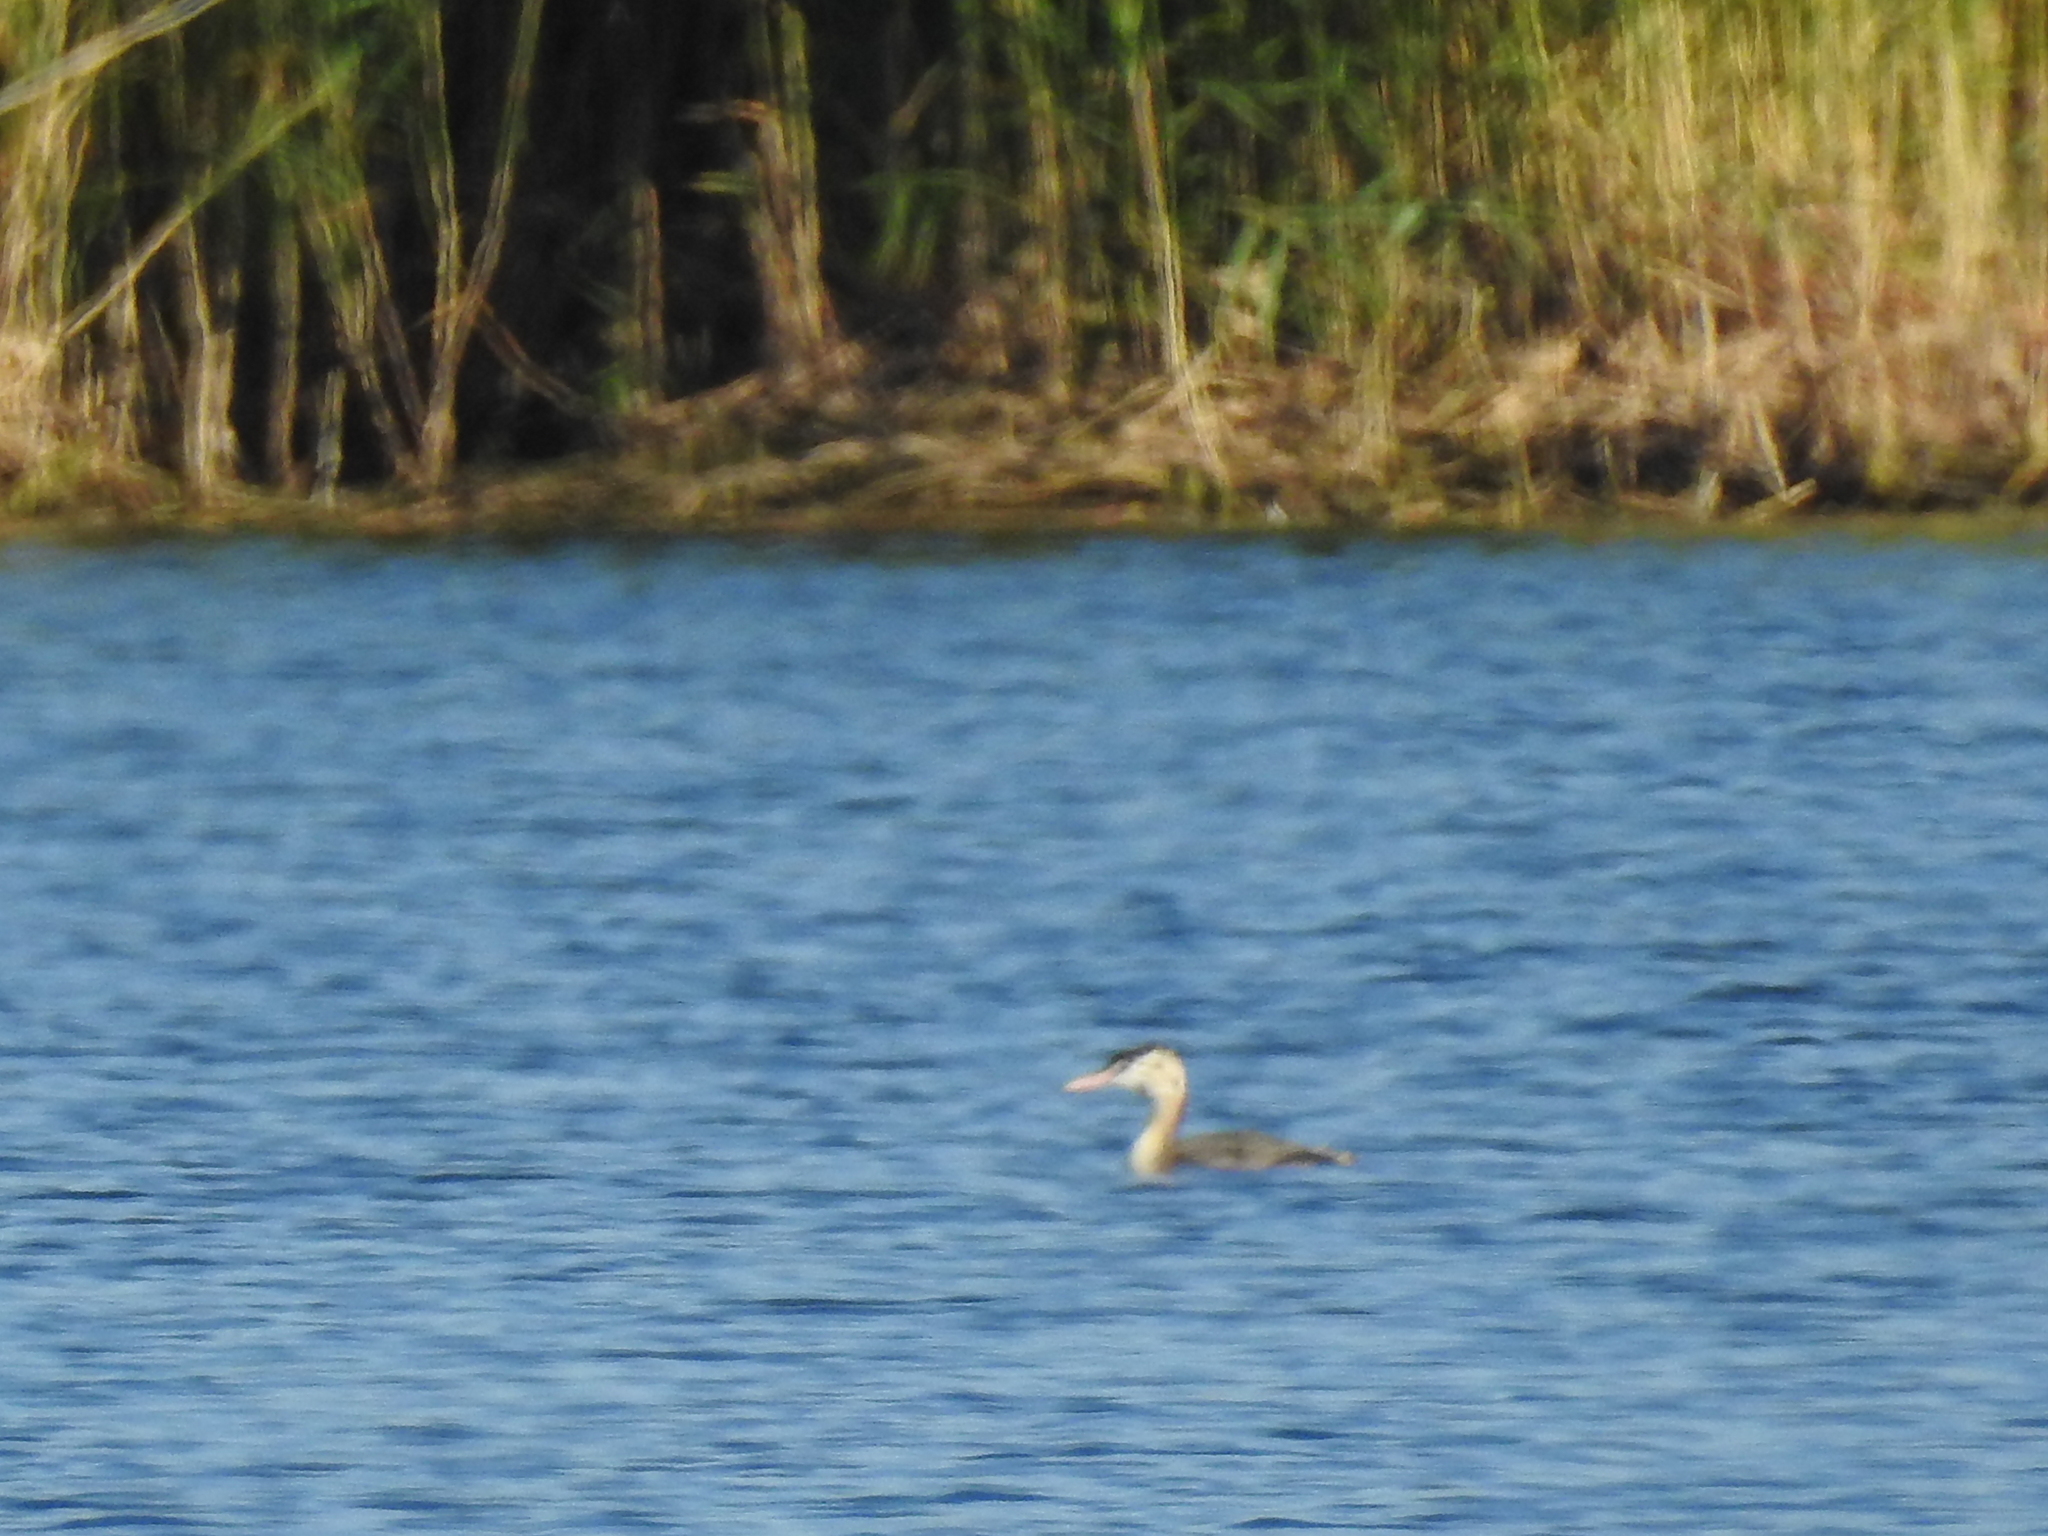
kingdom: Animalia
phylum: Chordata
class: Aves
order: Podicipediformes
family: Podicipedidae
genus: Podiceps
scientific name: Podiceps cristatus
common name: Great crested grebe
